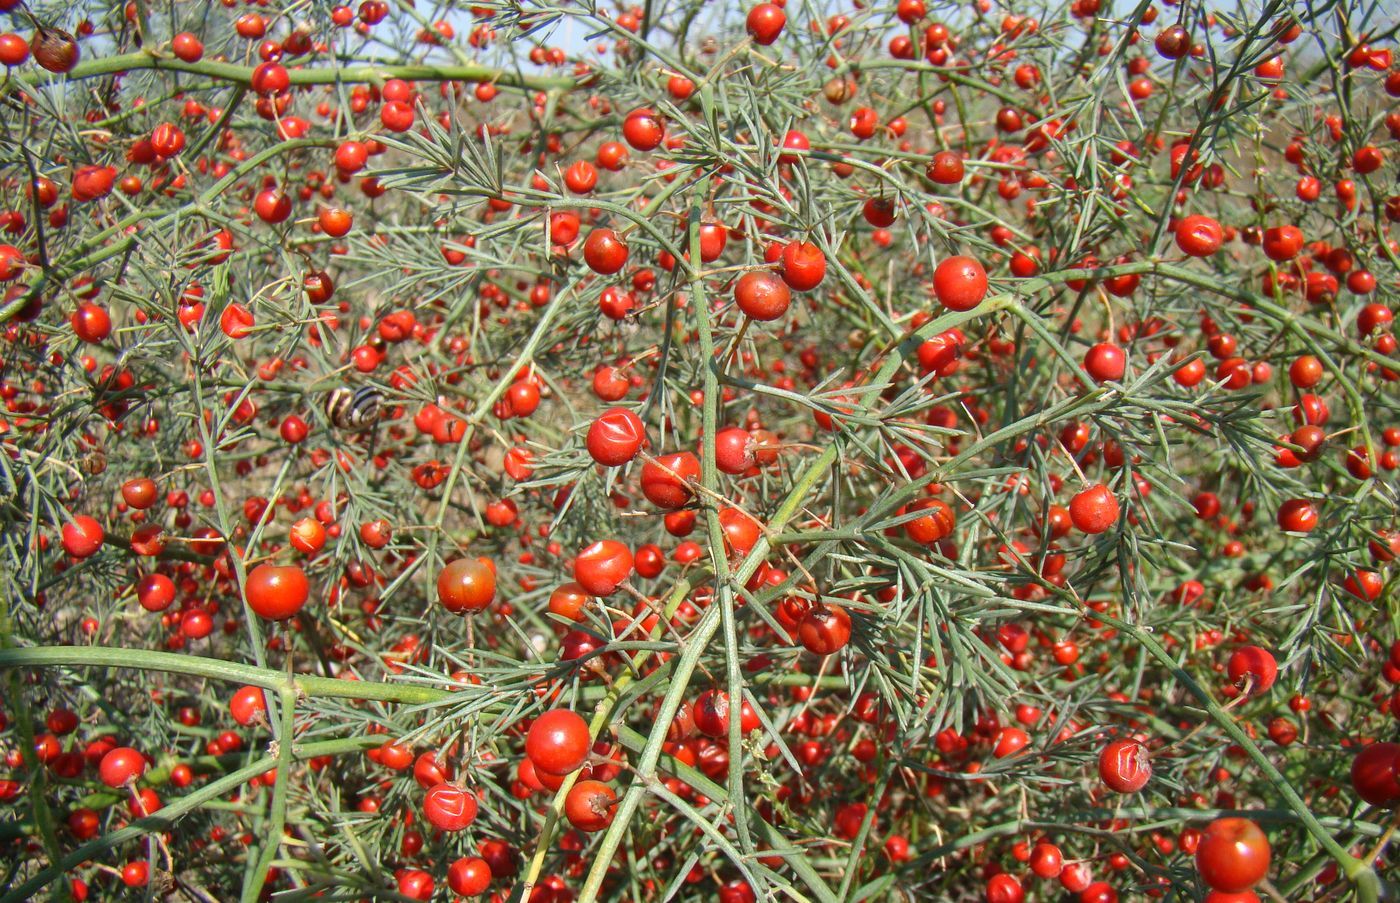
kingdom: Plantae
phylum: Tracheophyta
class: Liliopsida
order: Asparagales
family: Asparagaceae
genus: Asparagus
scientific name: Asparagus officinalis
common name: Garden asparagus
